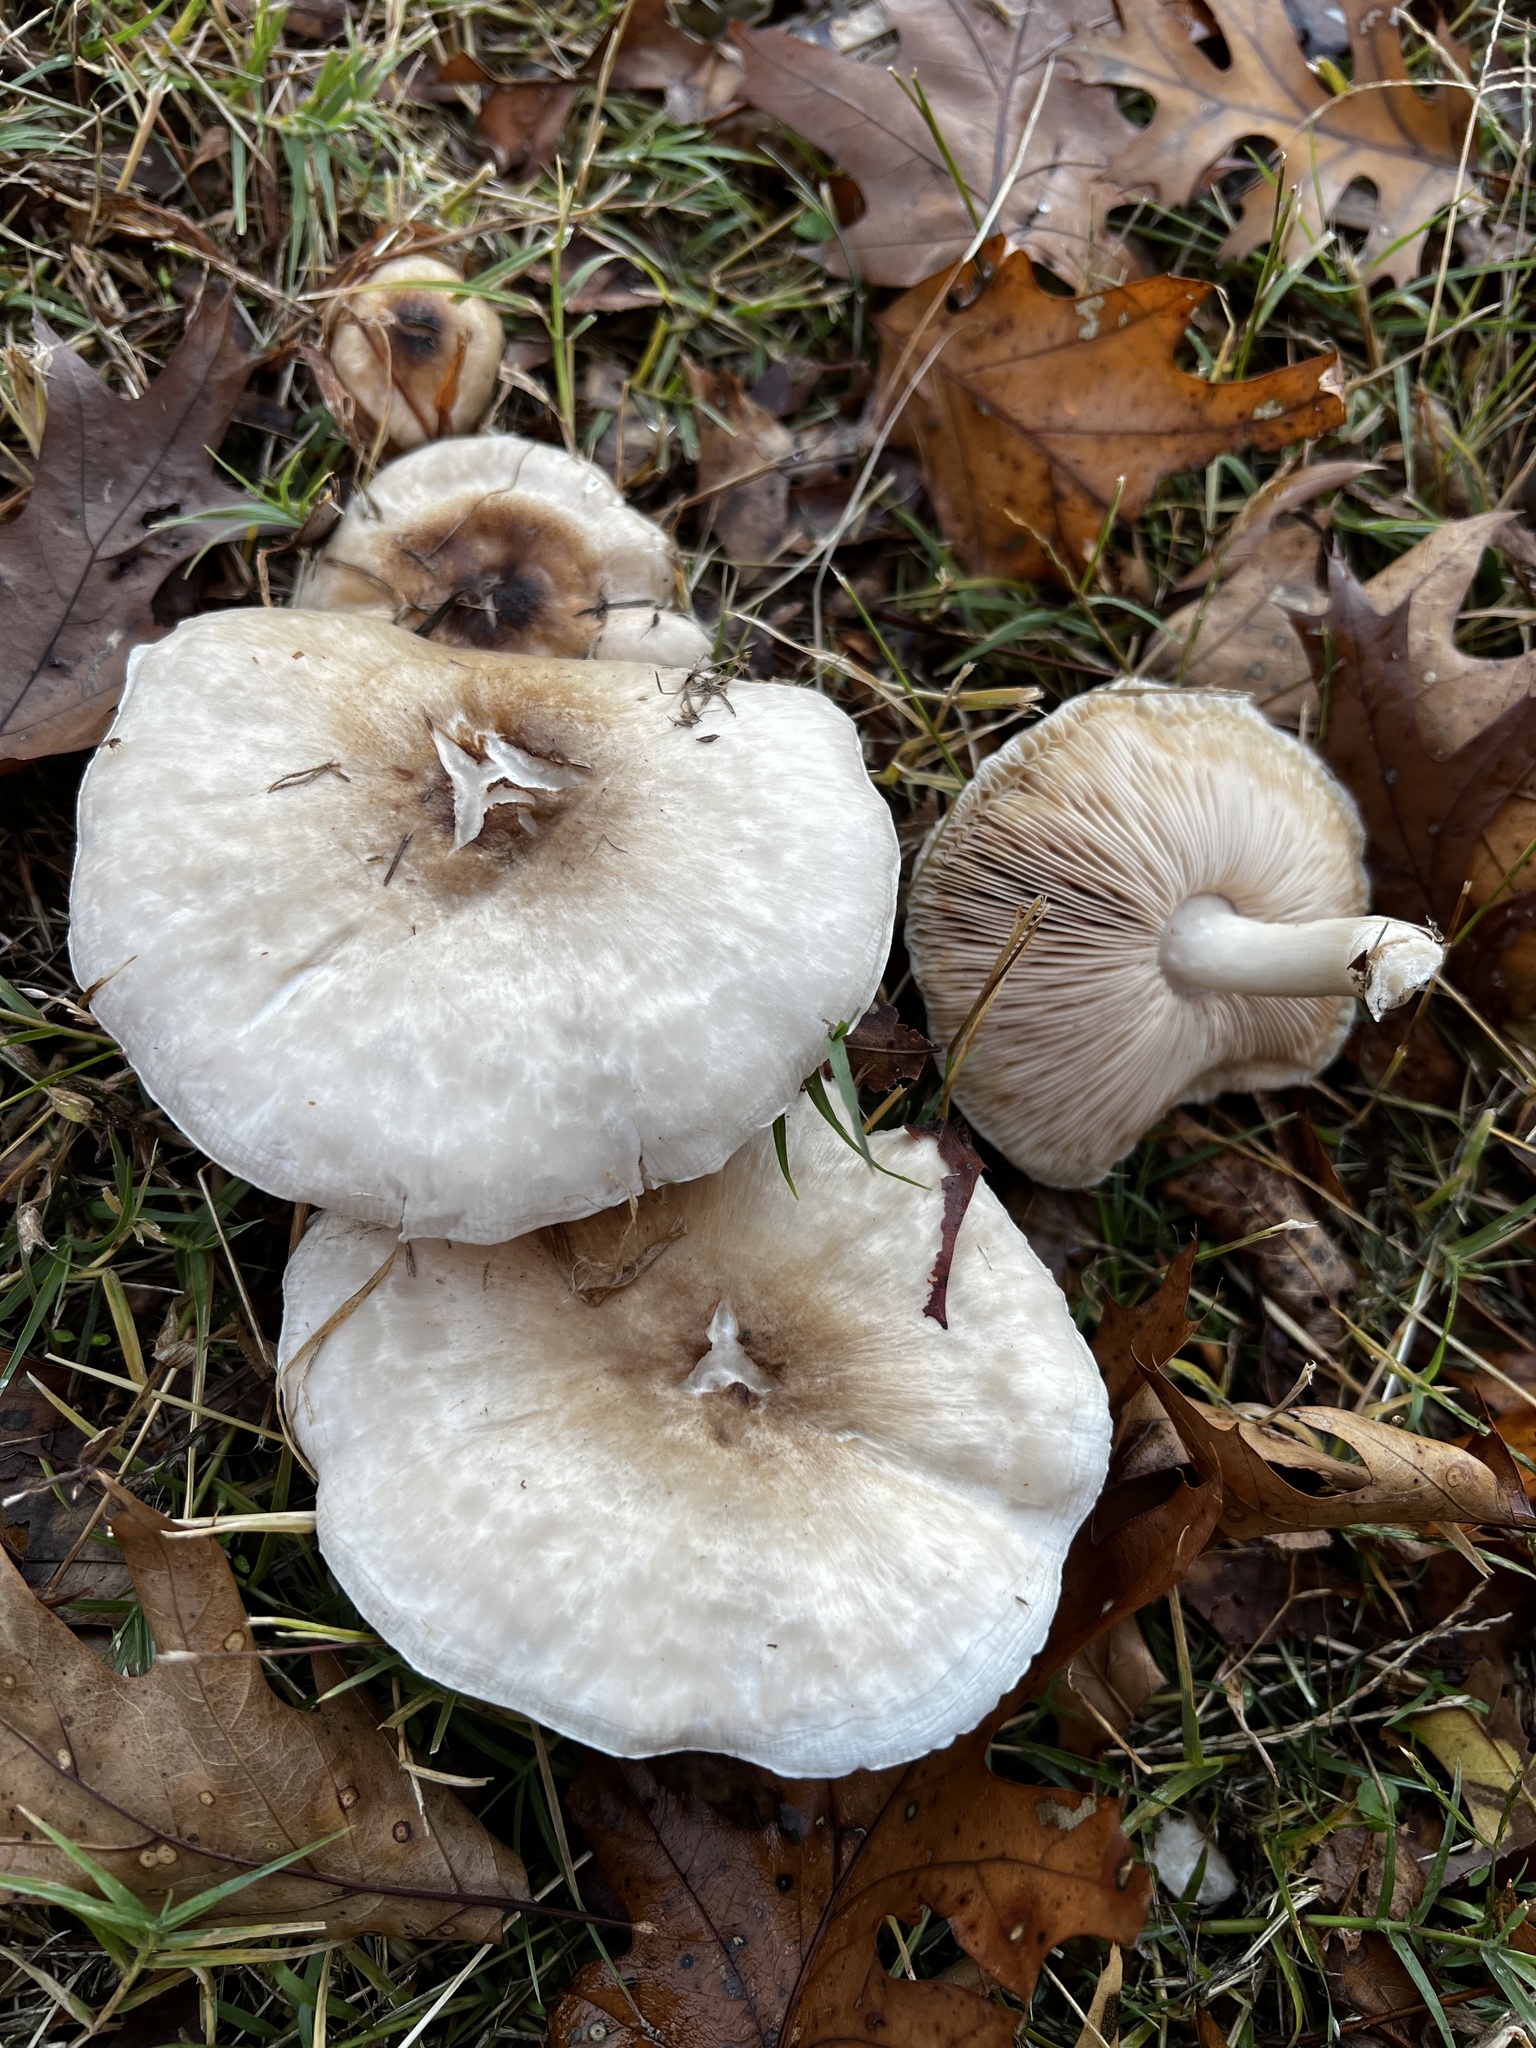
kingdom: Fungi
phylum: Basidiomycota
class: Agaricomycetes
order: Agaricales
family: Pluteaceae
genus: Pluteus
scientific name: Pluteus petasatus
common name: Scaly shield
